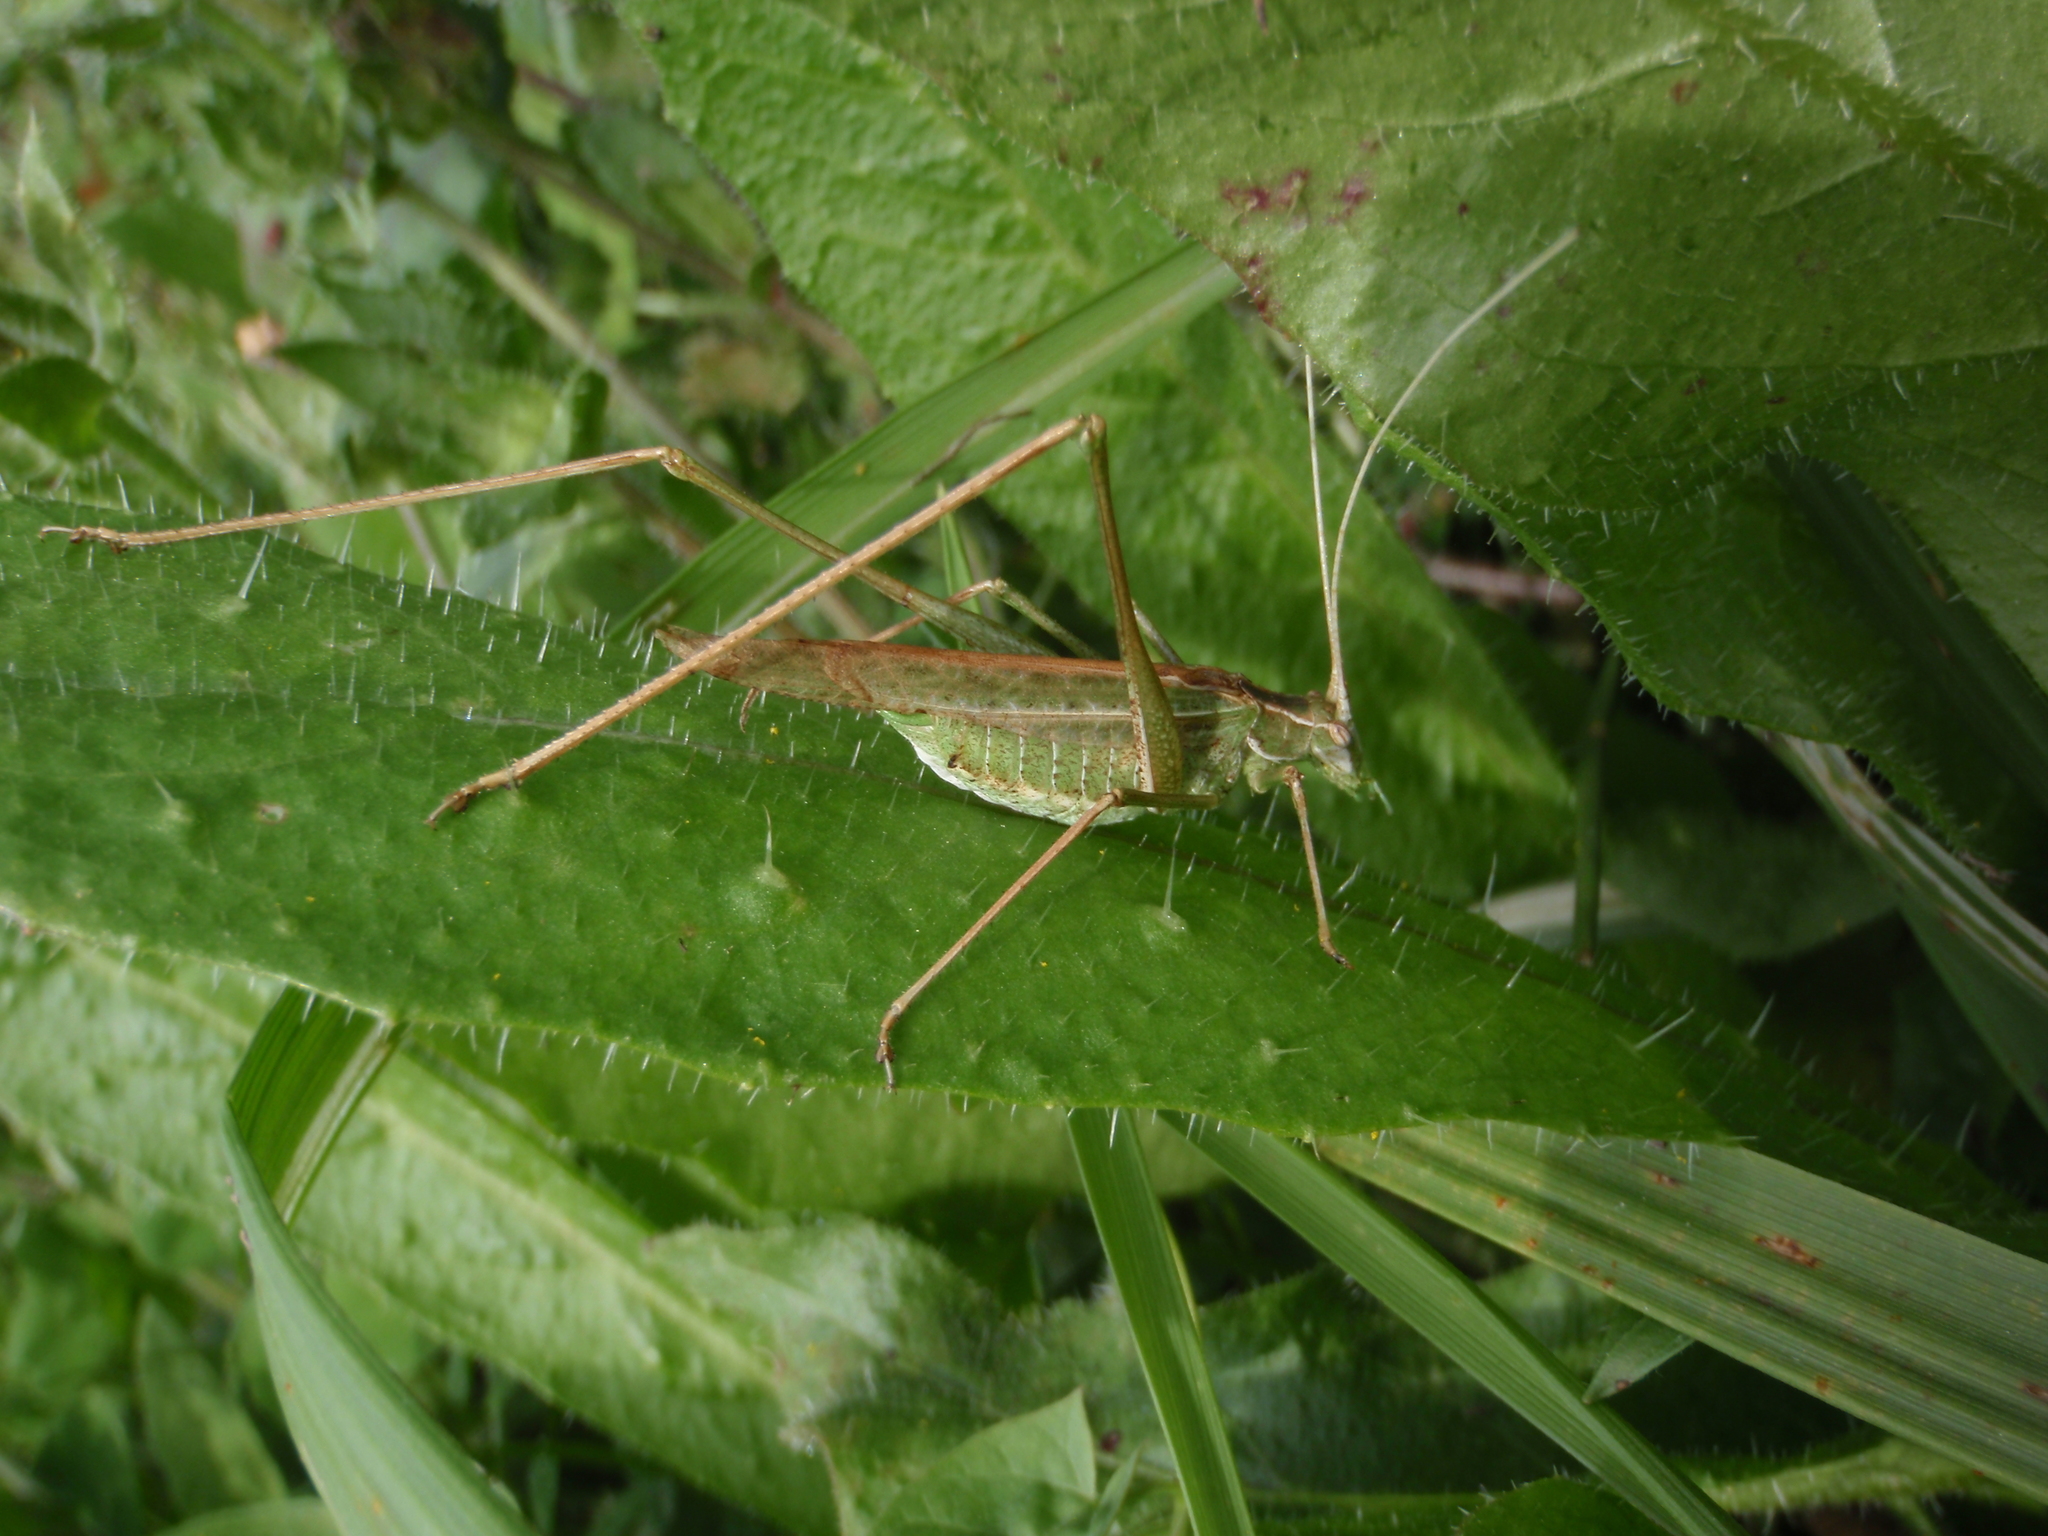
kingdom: Animalia
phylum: Arthropoda
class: Insecta
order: Orthoptera
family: Tettigoniidae
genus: Tylopsis
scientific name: Tylopsis lilifolia
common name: Lily bush-cricket
